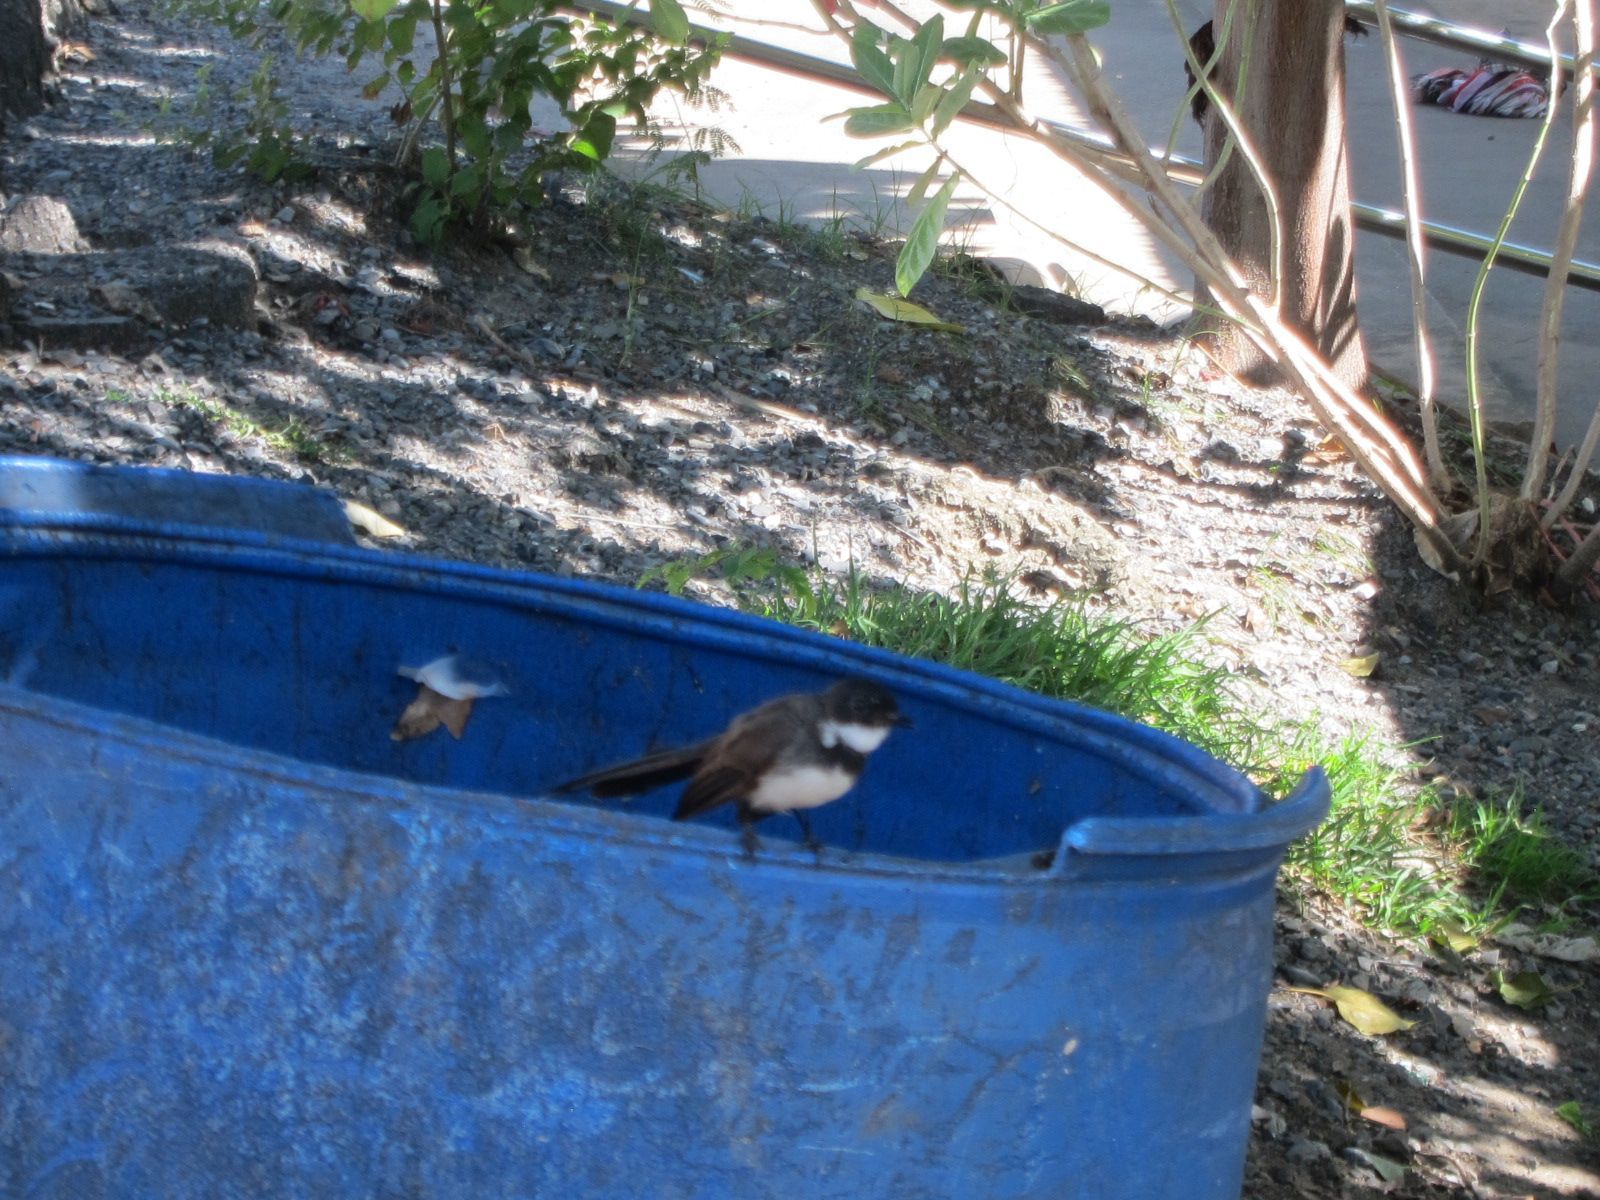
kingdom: Animalia
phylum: Chordata
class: Aves
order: Passeriformes
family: Rhipiduridae
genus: Rhipidura
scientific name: Rhipidura javanica
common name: Pied fantail
